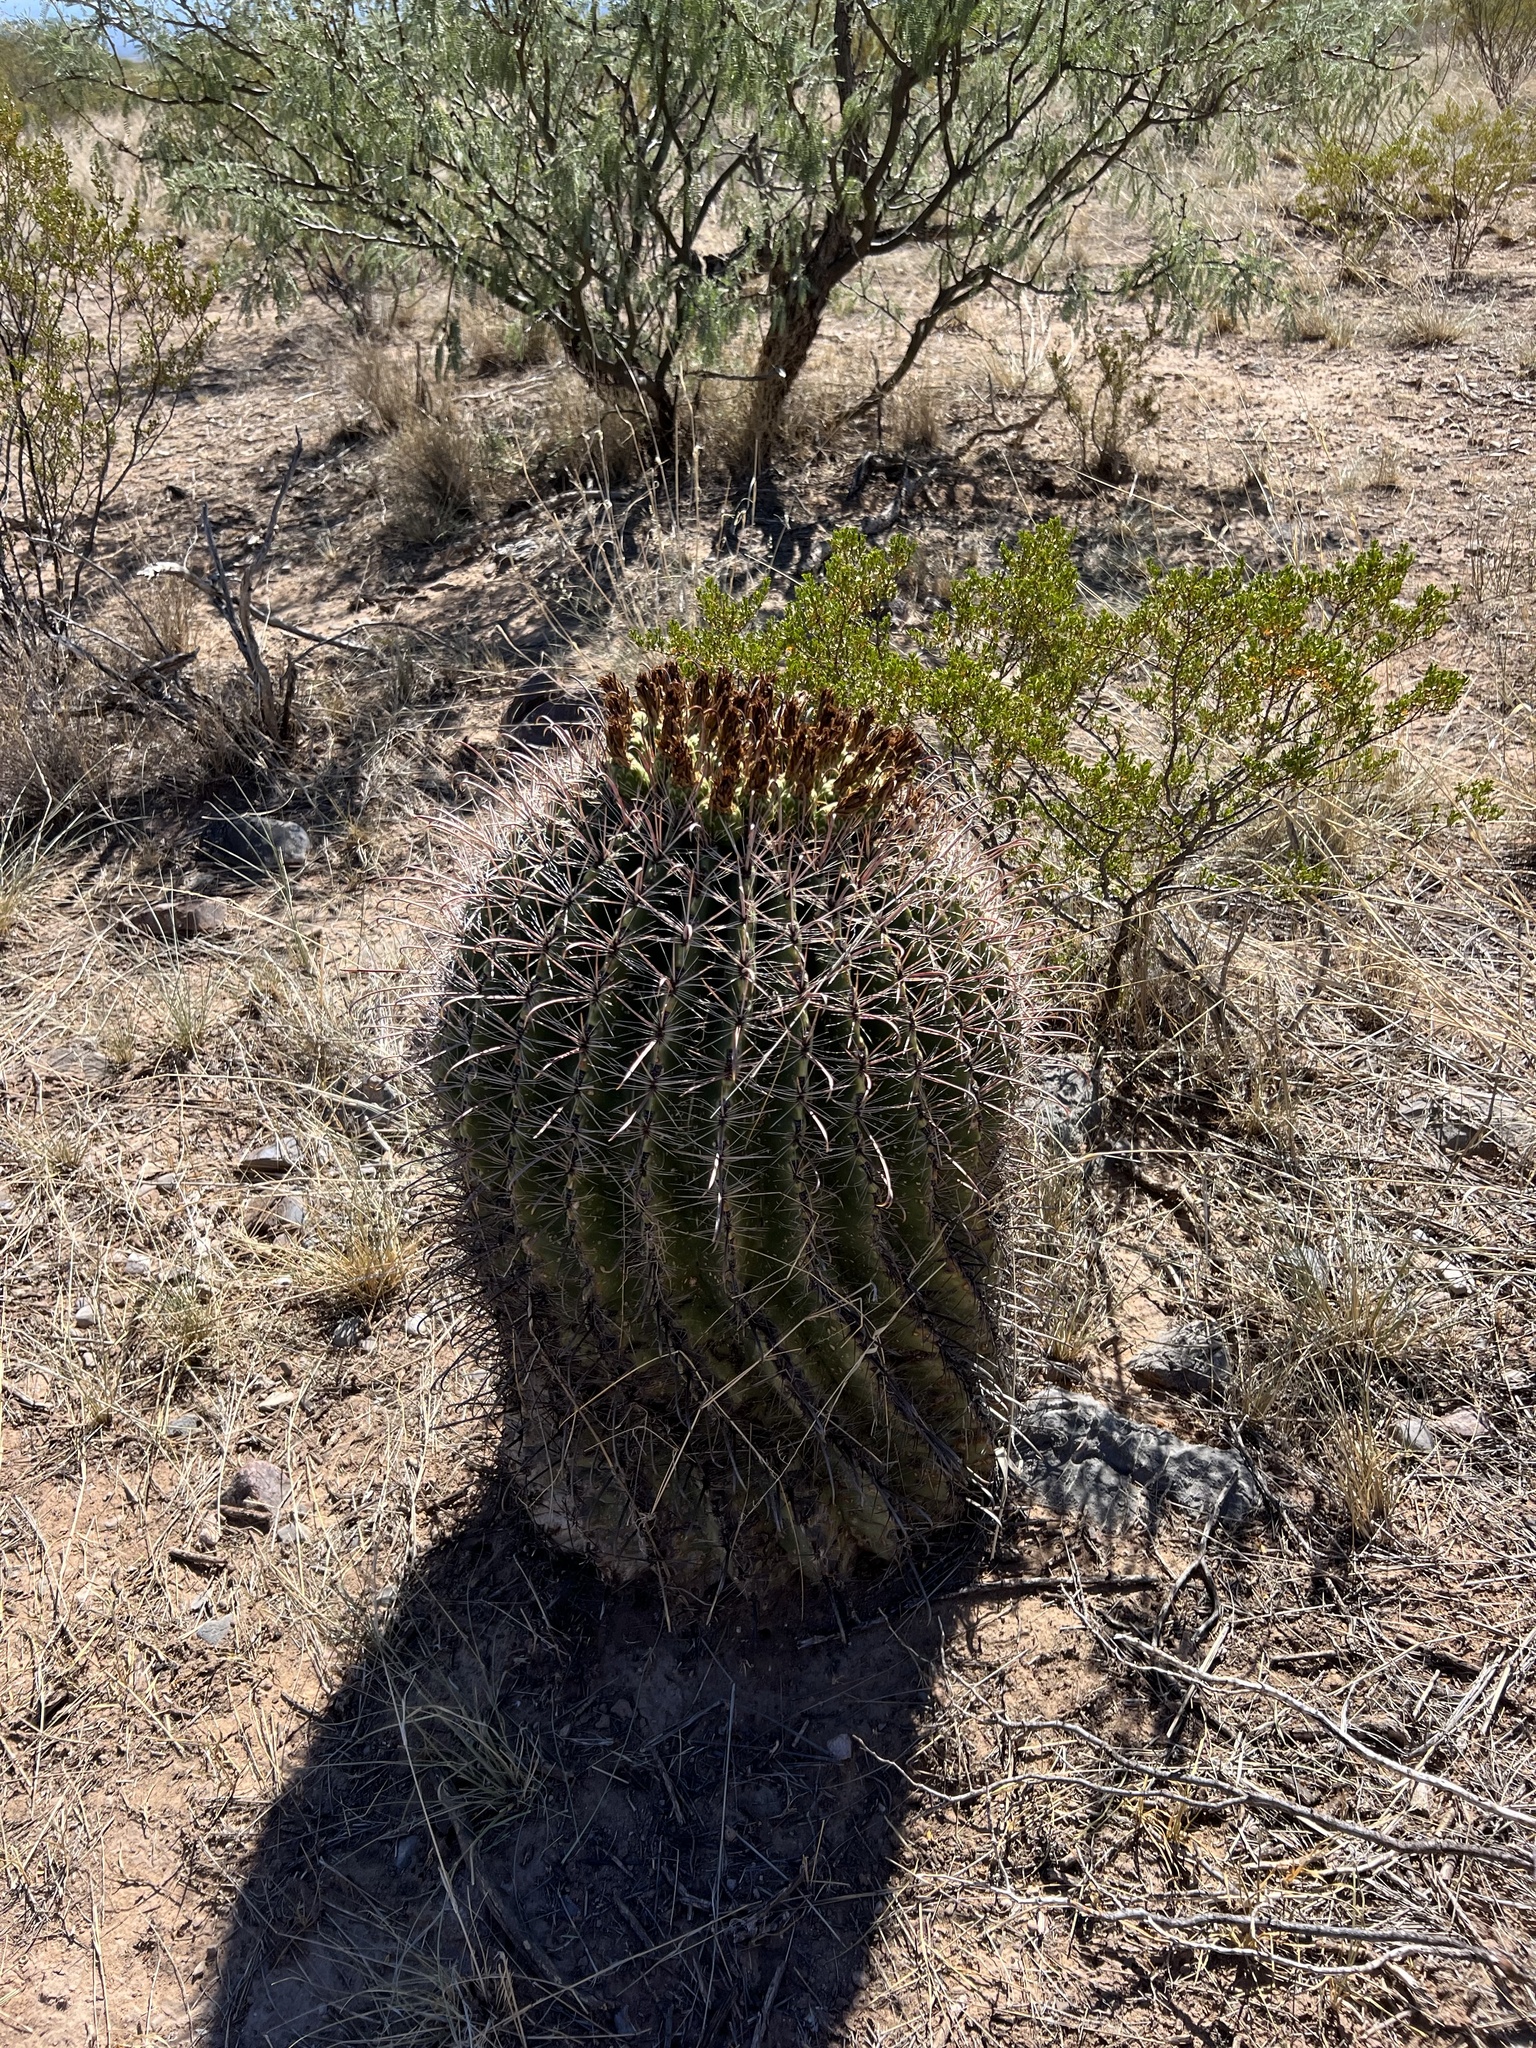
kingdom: Plantae
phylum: Tracheophyta
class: Magnoliopsida
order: Caryophyllales
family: Cactaceae
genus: Ferocactus
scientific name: Ferocactus wislizeni
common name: Candy barrel cactus
